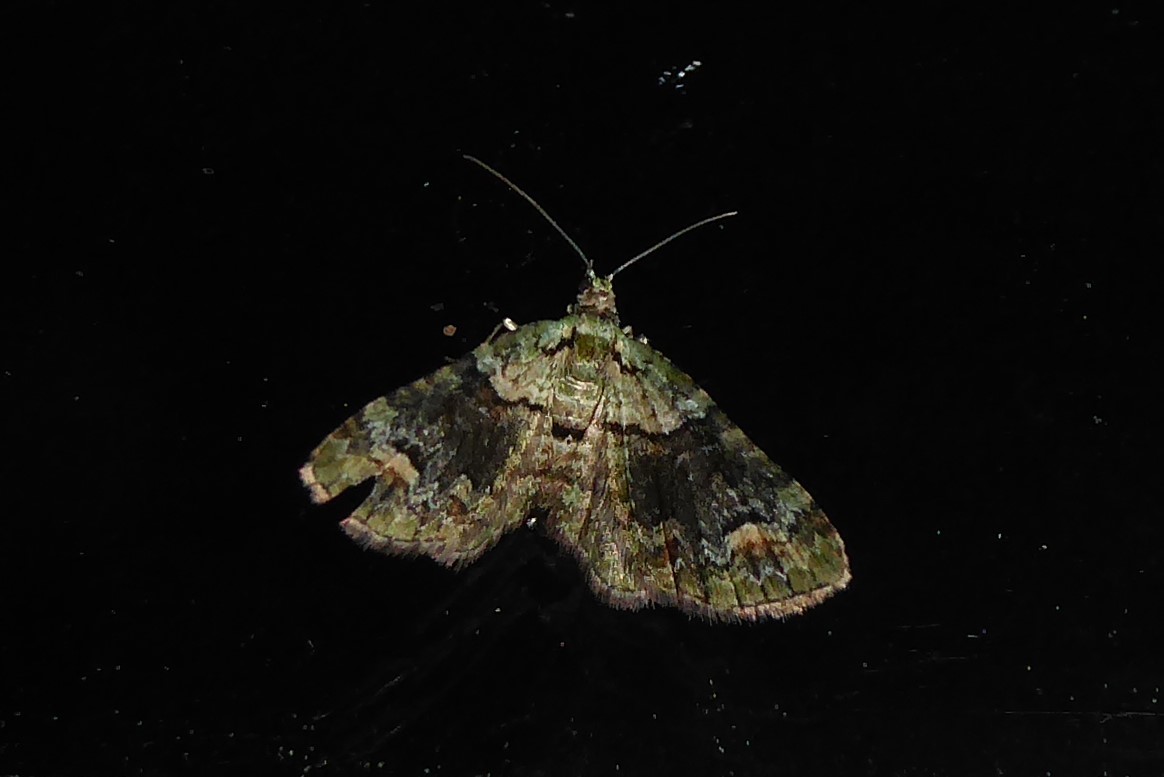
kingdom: Animalia
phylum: Arthropoda
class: Insecta
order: Lepidoptera
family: Geometridae
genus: Idaea
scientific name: Idaea mutanda
